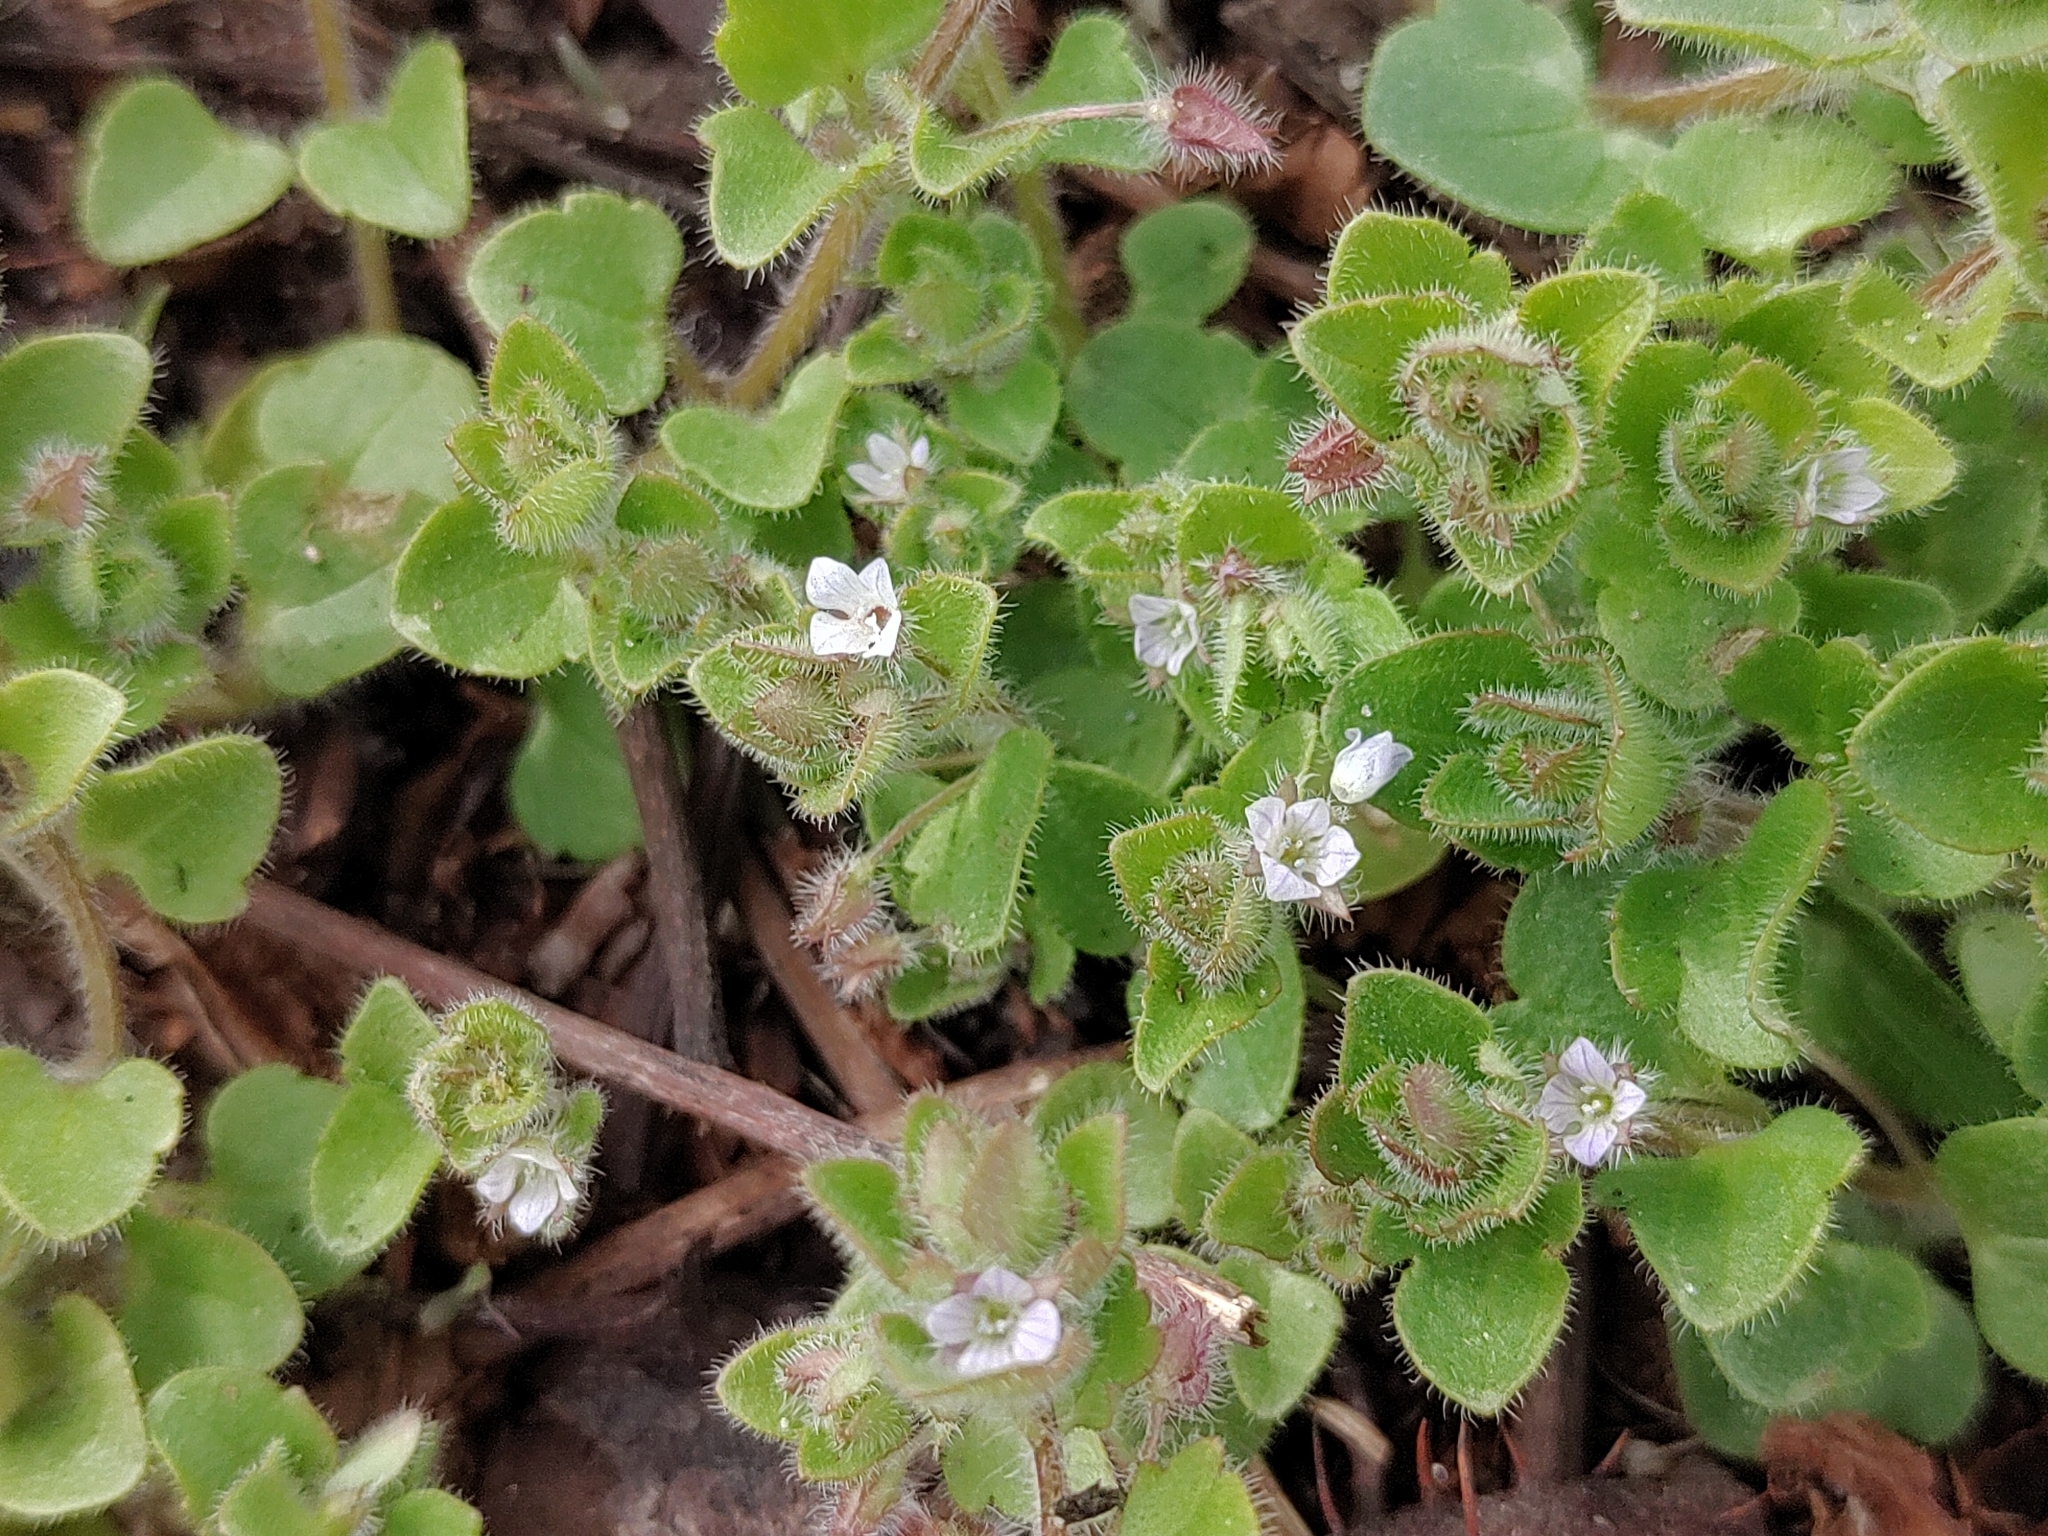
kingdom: Plantae
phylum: Tracheophyta
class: Magnoliopsida
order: Lamiales
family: Plantaginaceae
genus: Veronica
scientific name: Veronica sublobata
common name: False ivy-leaved speedwell
